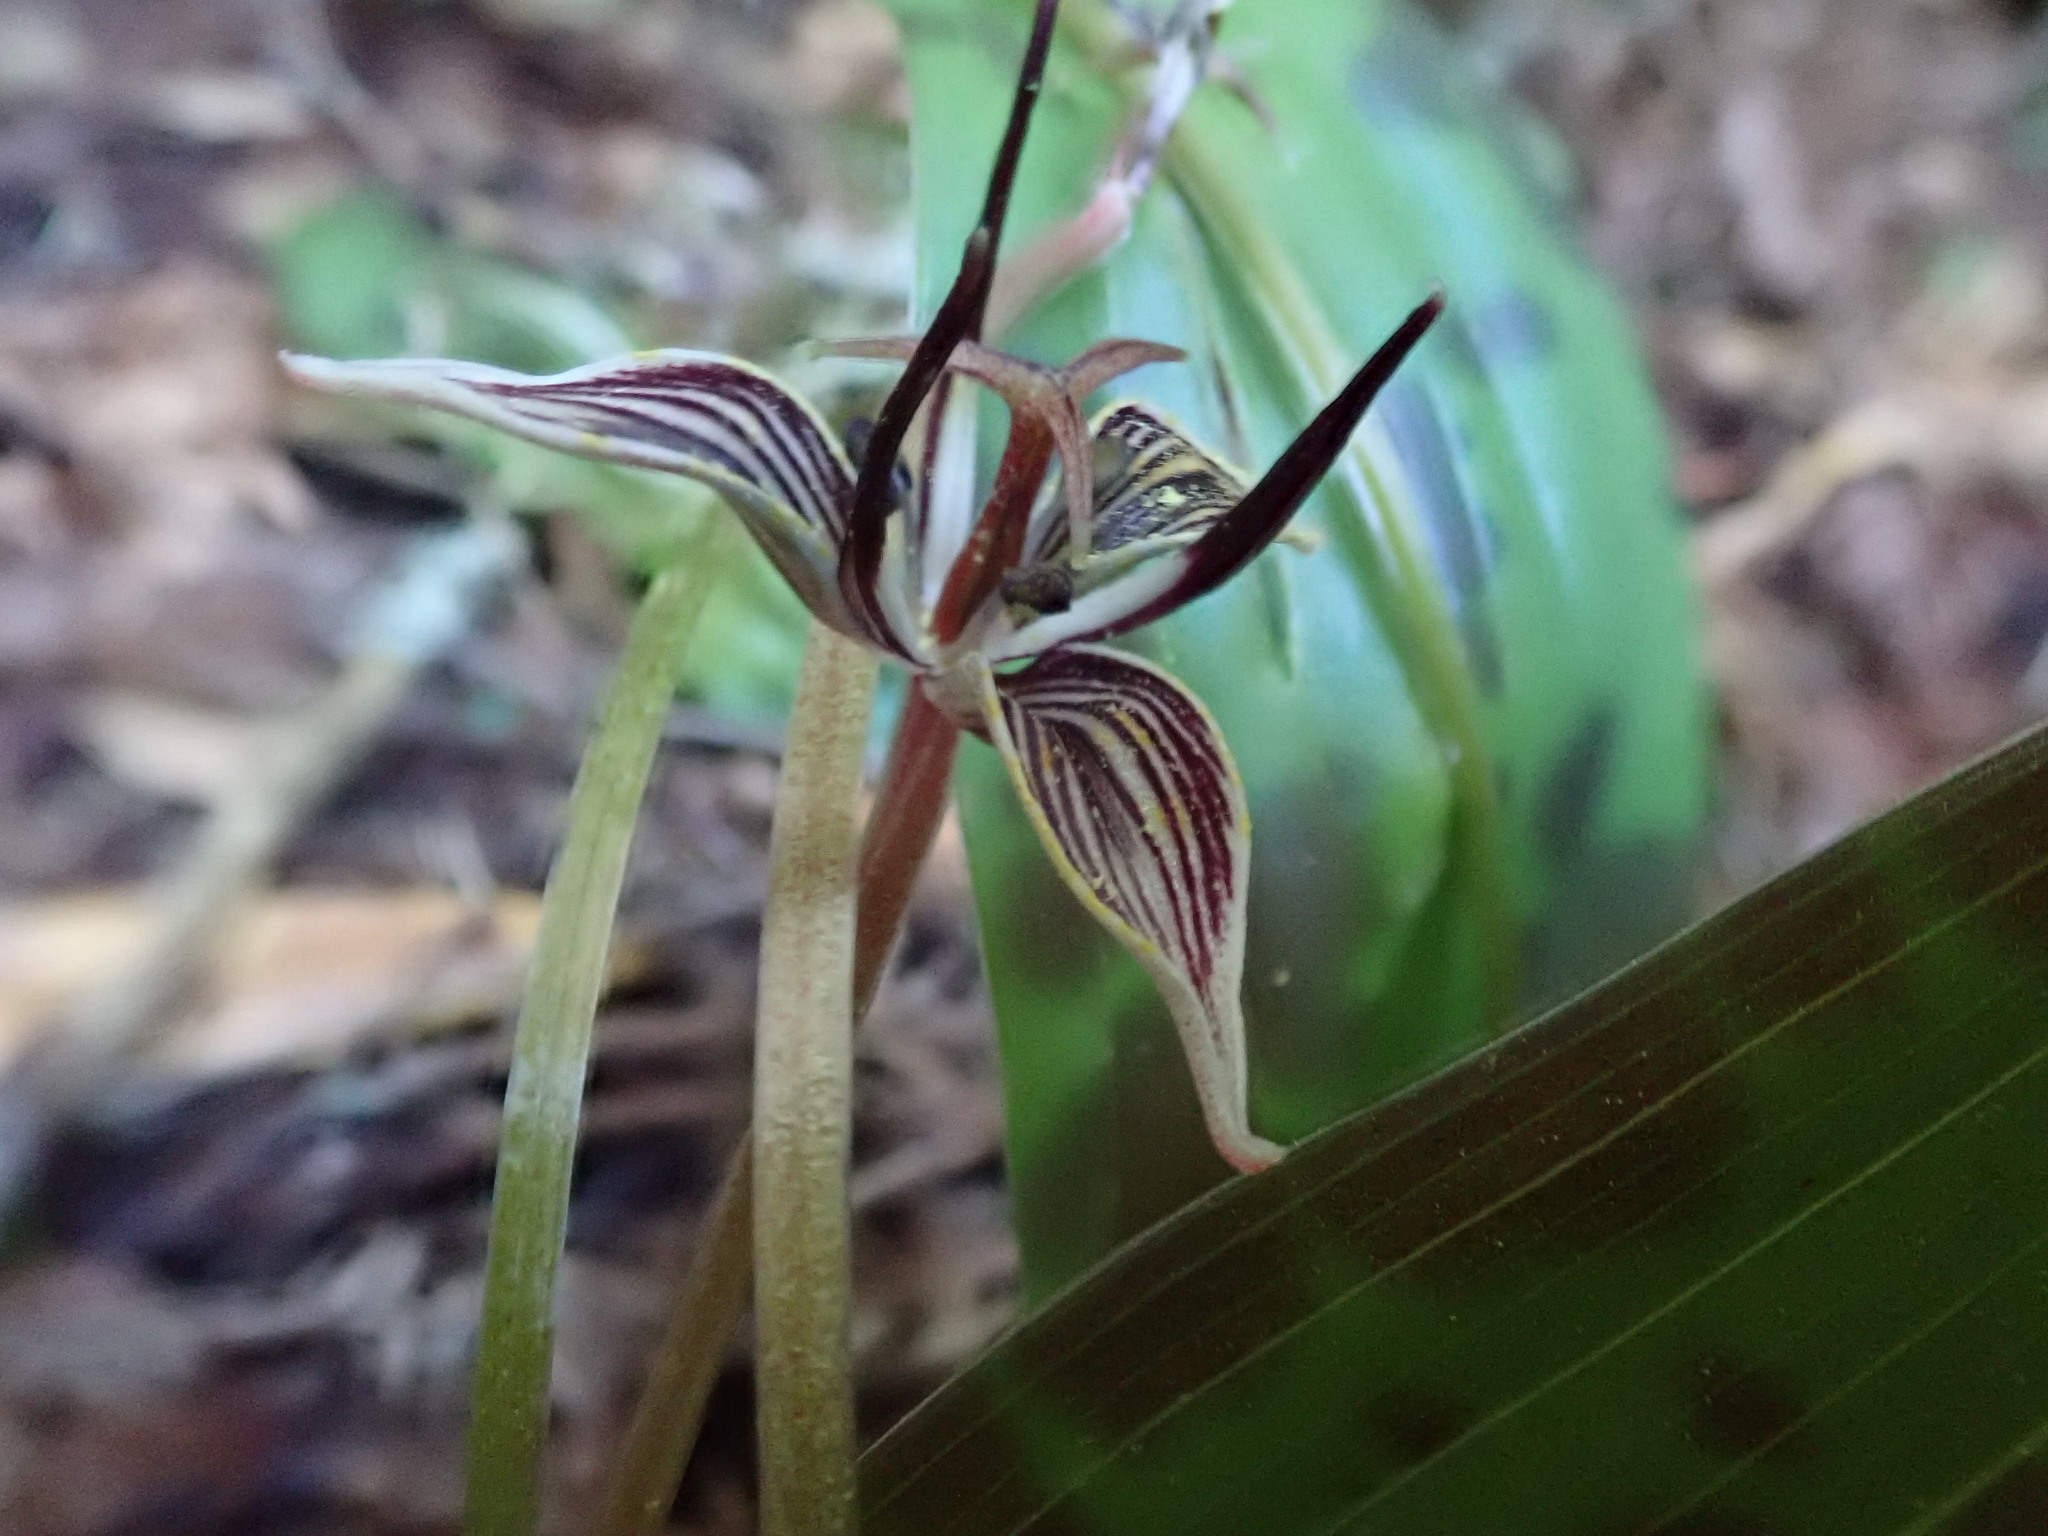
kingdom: Plantae
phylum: Tracheophyta
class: Liliopsida
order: Liliales
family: Liliaceae
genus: Scoliopus
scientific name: Scoliopus bigelovii
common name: Foetid adder's-tongue
